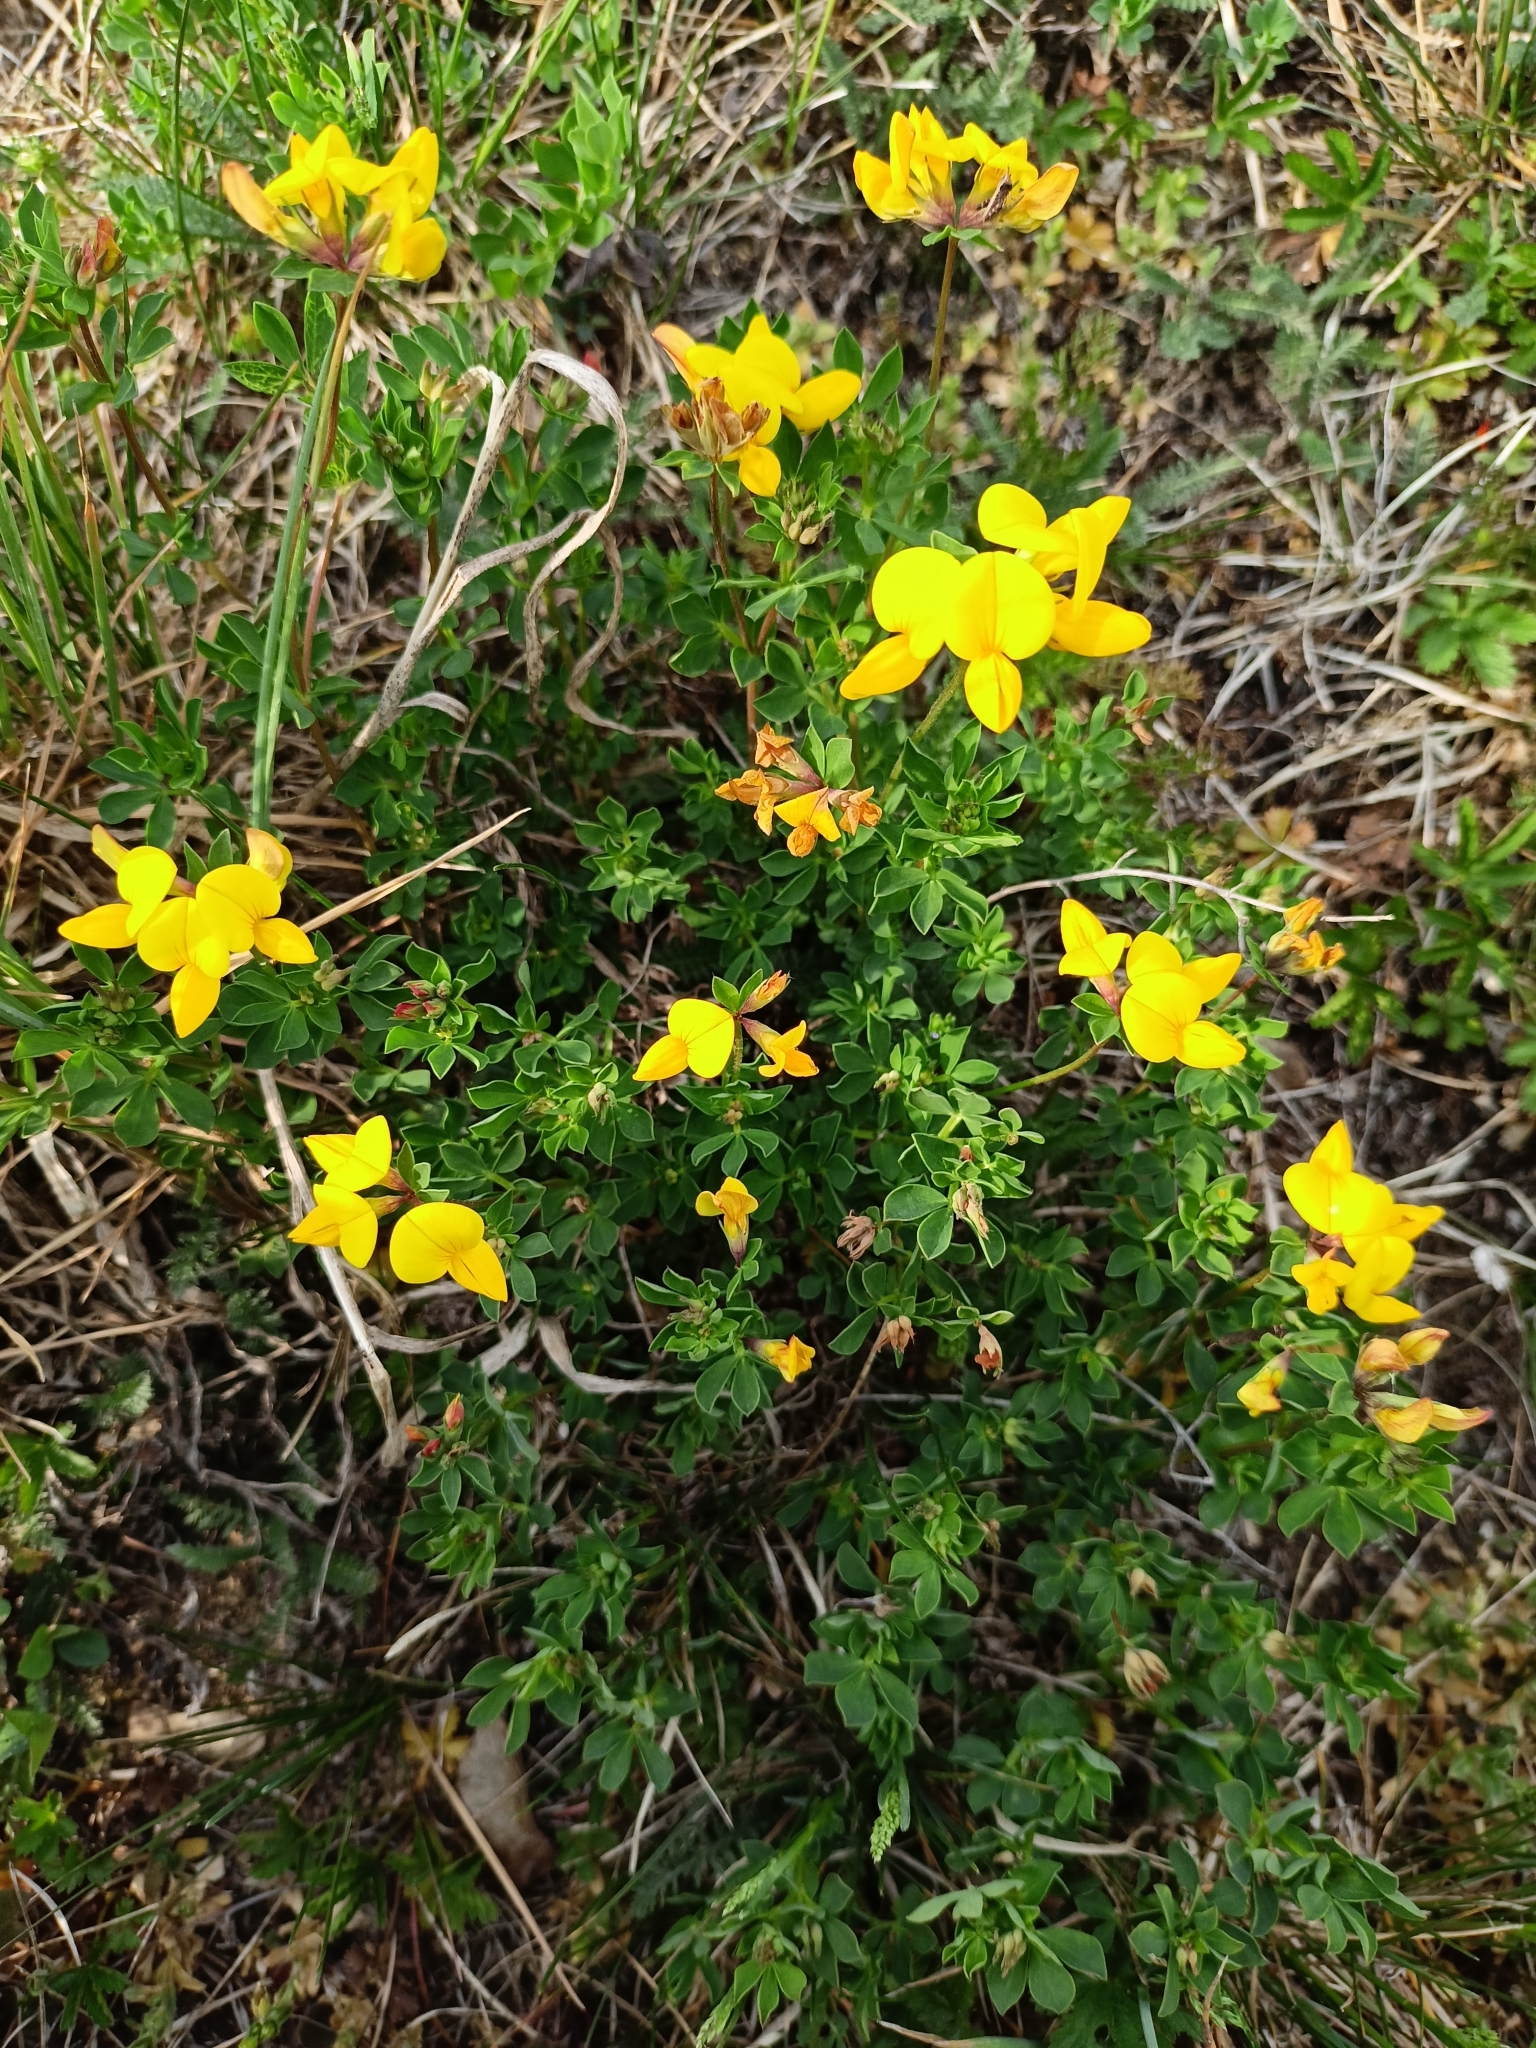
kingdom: Plantae
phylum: Tracheophyta
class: Magnoliopsida
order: Fabales
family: Fabaceae
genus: Lotus
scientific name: Lotus corniculatus
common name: Common bird's-foot-trefoil
